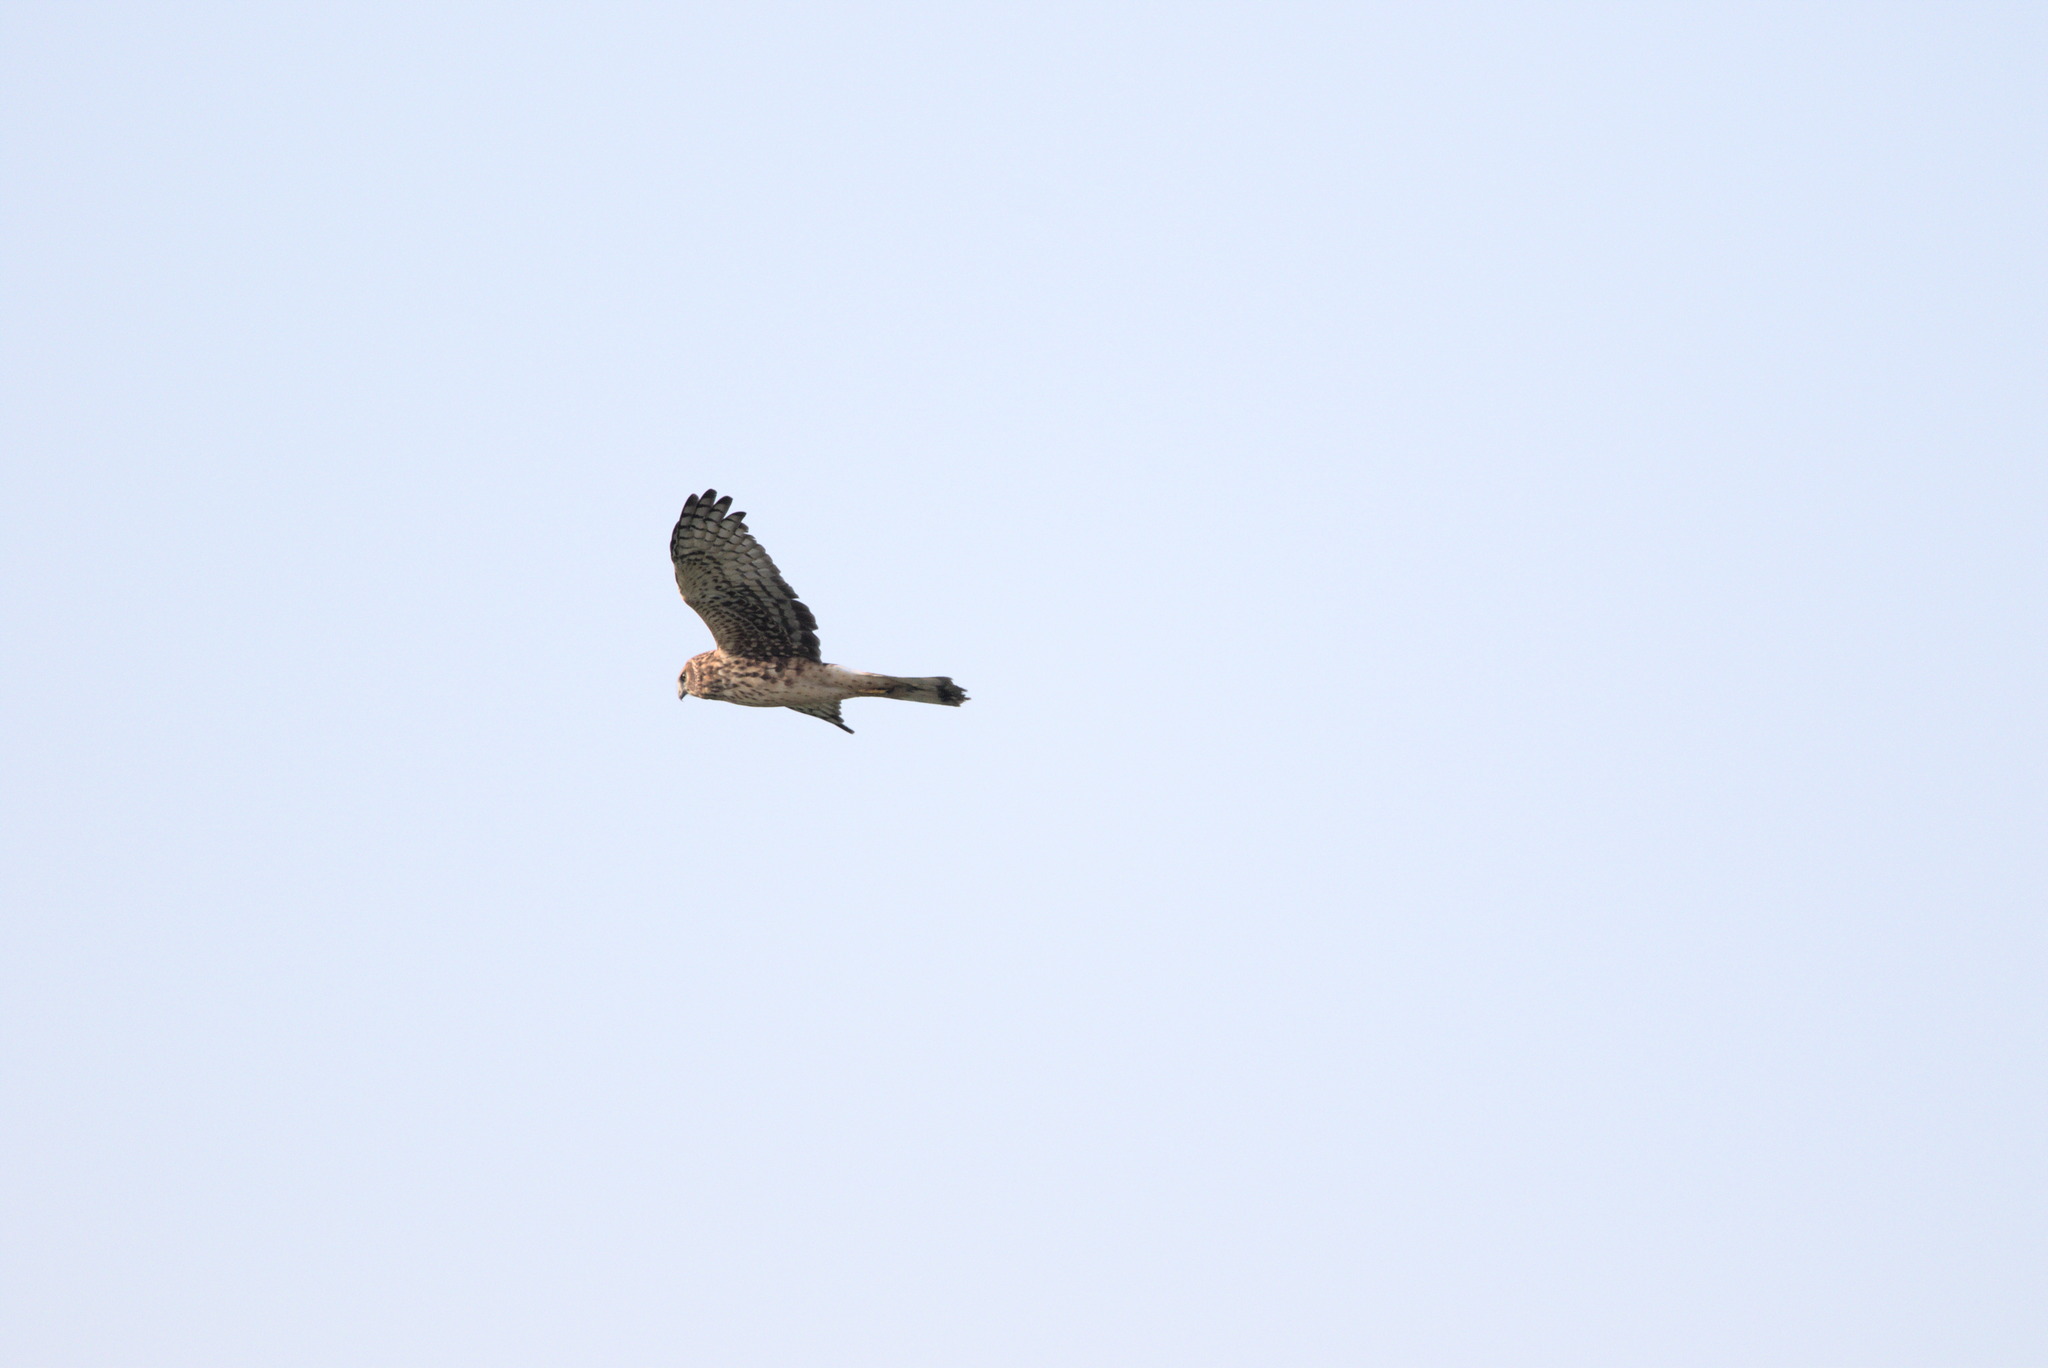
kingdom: Animalia
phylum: Chordata
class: Aves
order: Accipitriformes
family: Accipitridae
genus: Circus
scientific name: Circus cyaneus
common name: Hen harrier
